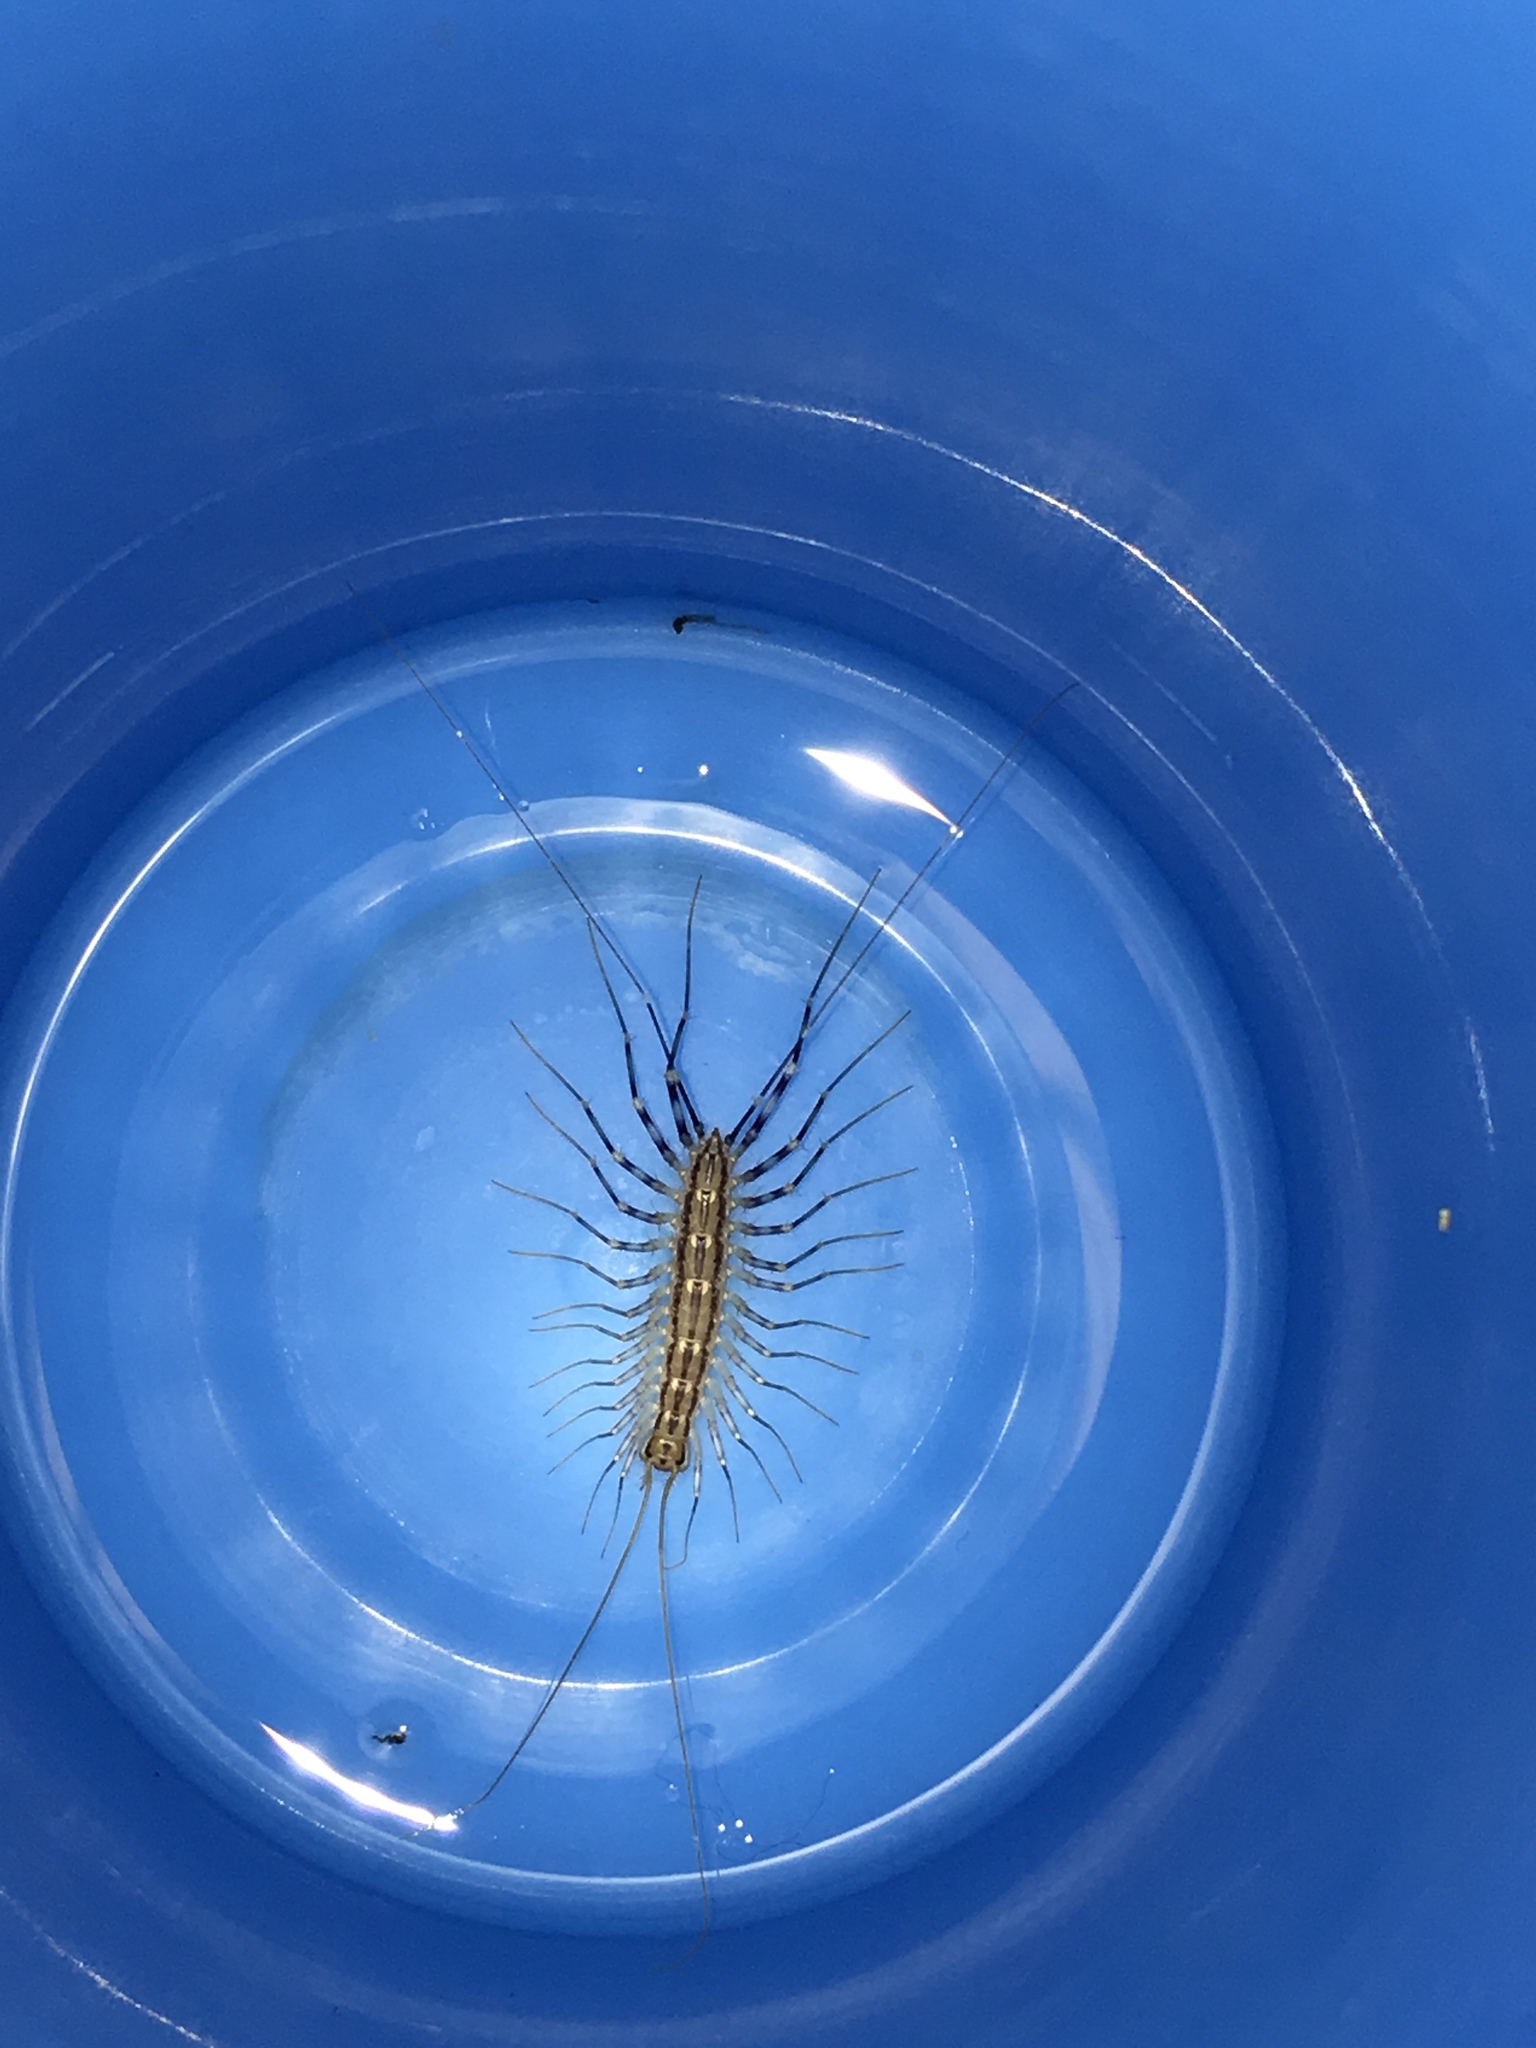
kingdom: Animalia
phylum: Arthropoda
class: Chilopoda
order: Scutigeromorpha
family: Scutigeridae
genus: Scutigera
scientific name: Scutigera coleoptrata
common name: House centipede
